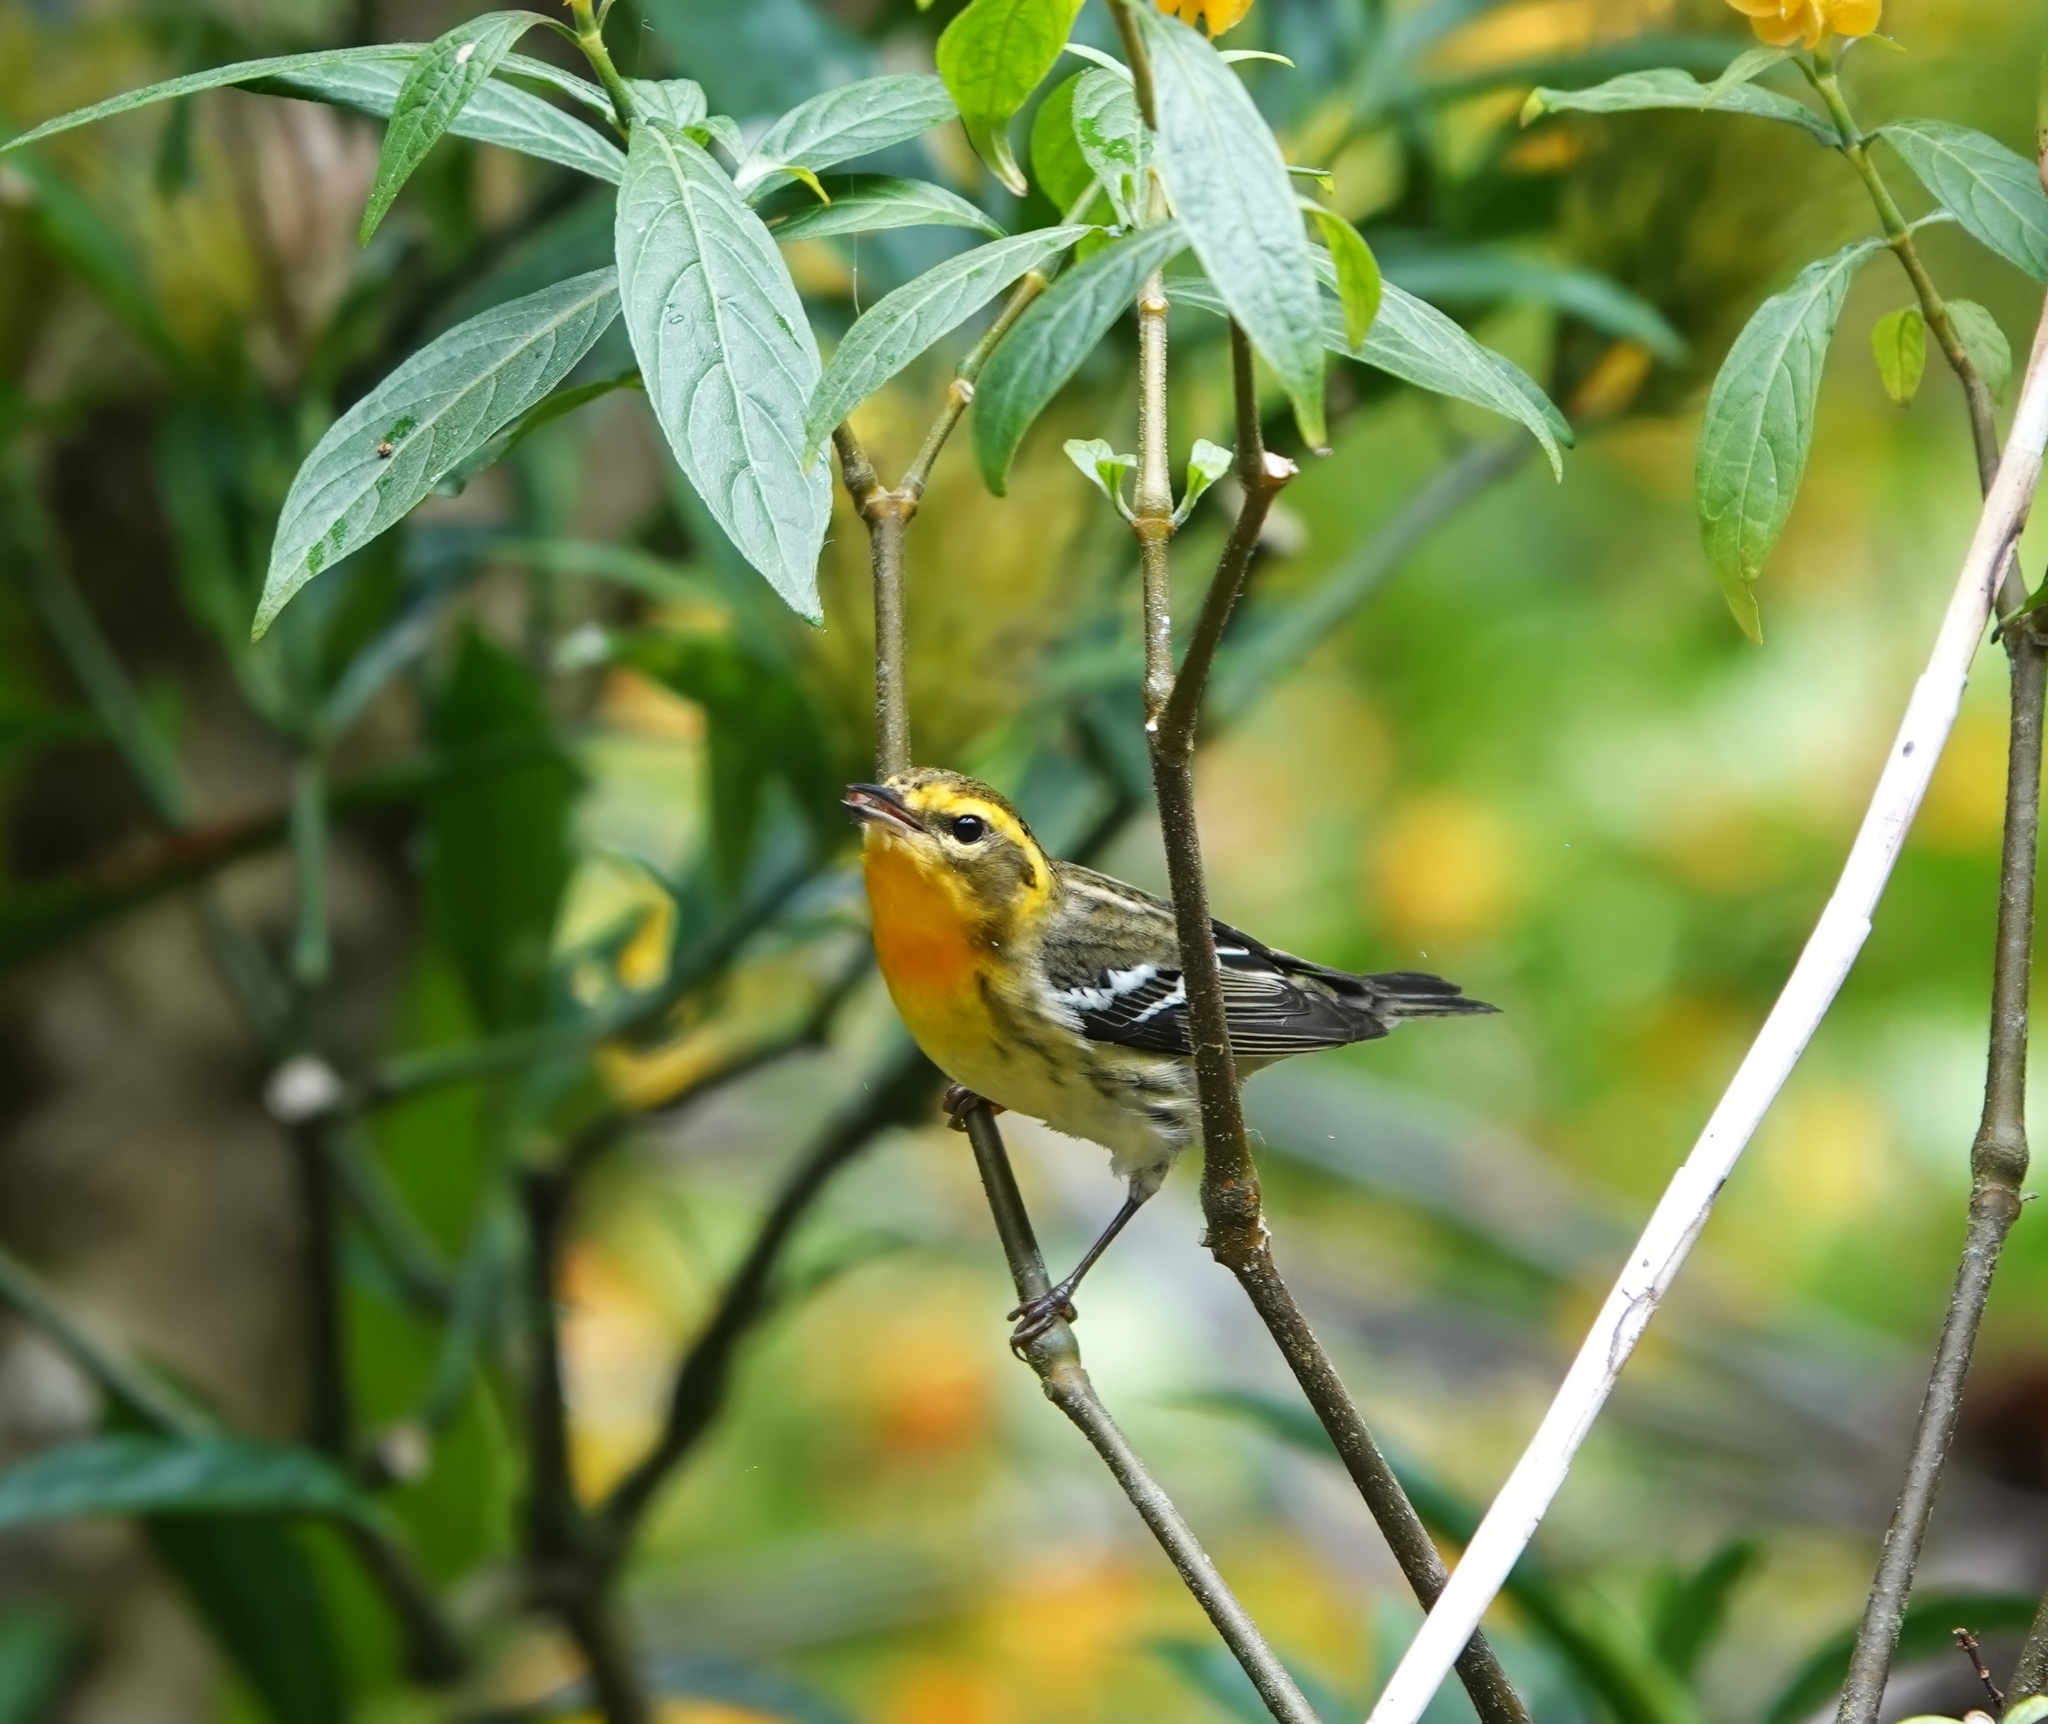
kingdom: Animalia
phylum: Chordata
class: Aves
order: Passeriformes
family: Parulidae
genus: Setophaga
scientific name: Setophaga fusca
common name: Blackburnian warbler
